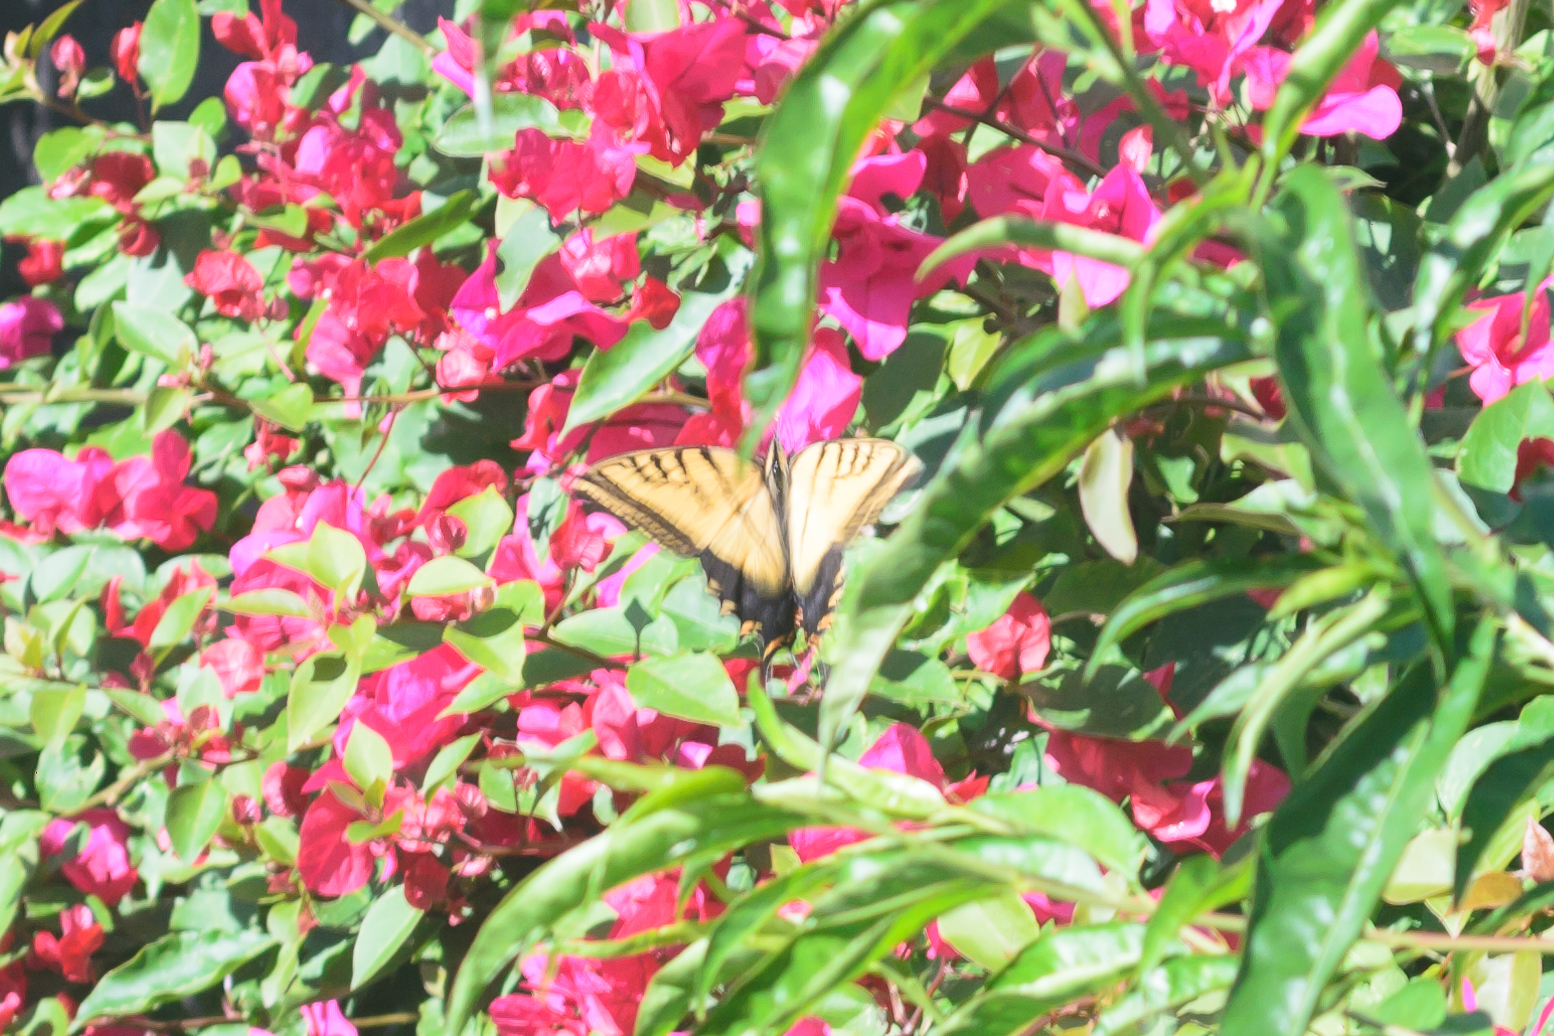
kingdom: Animalia
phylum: Arthropoda
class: Insecta
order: Lepidoptera
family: Papilionidae
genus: Papilio
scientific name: Papilio multicaudata
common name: Two-tailed tiger swallowtail
